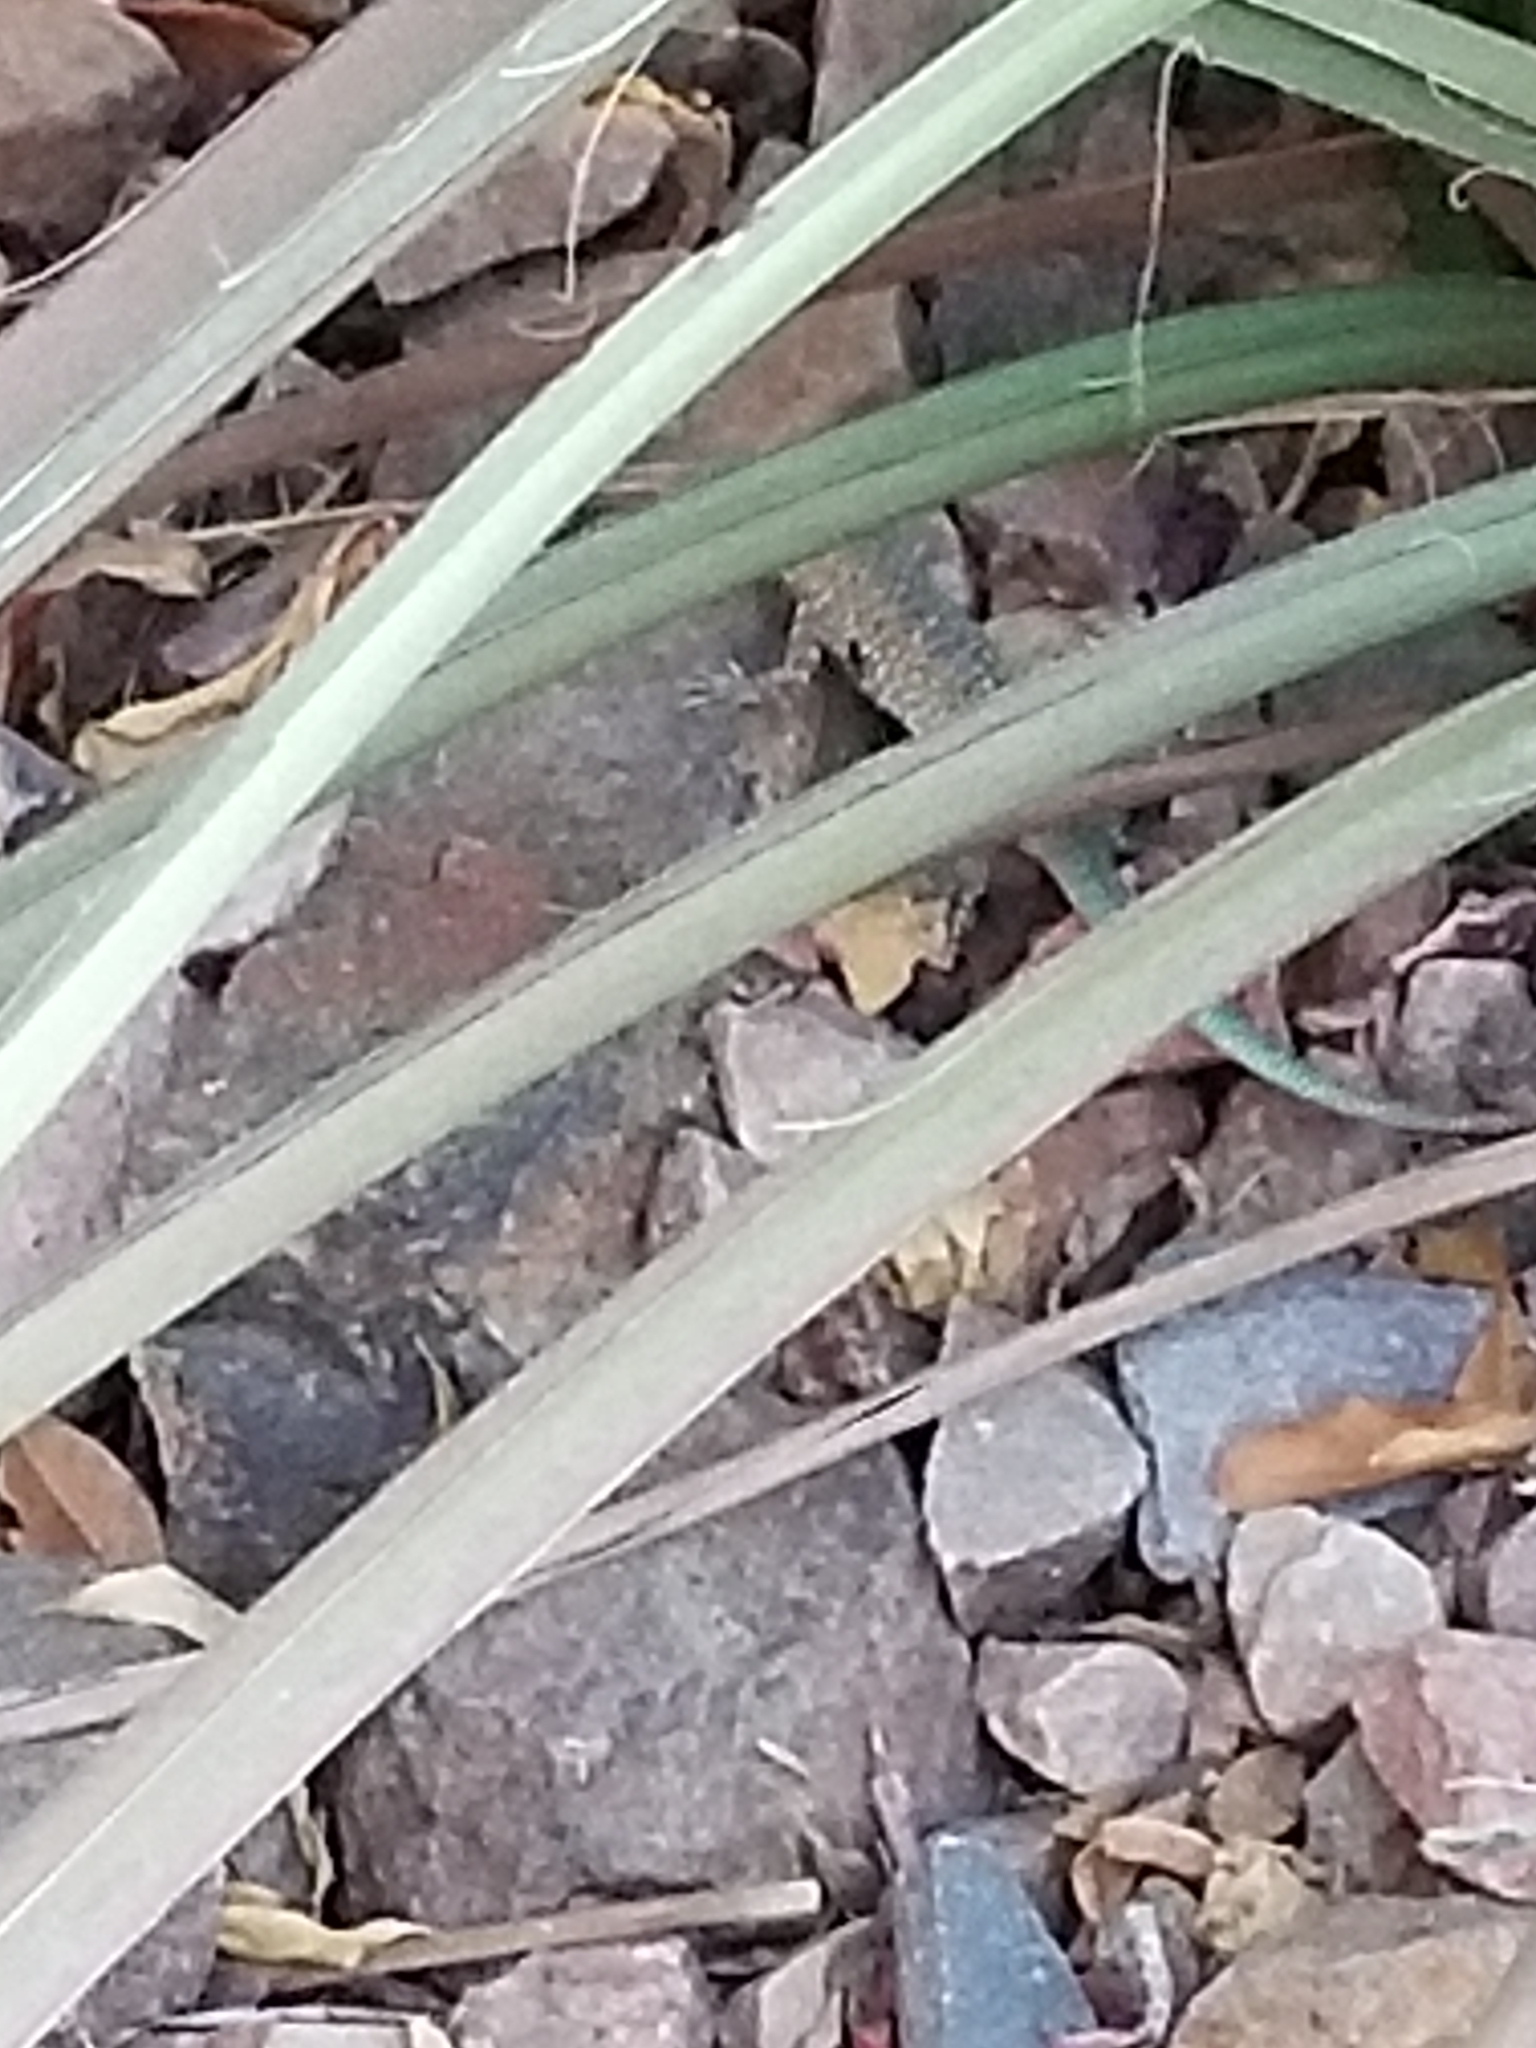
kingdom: Animalia
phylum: Chordata
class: Squamata
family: Phrynosomatidae
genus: Uta
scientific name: Uta stansburiana
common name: Side-blotched lizard
